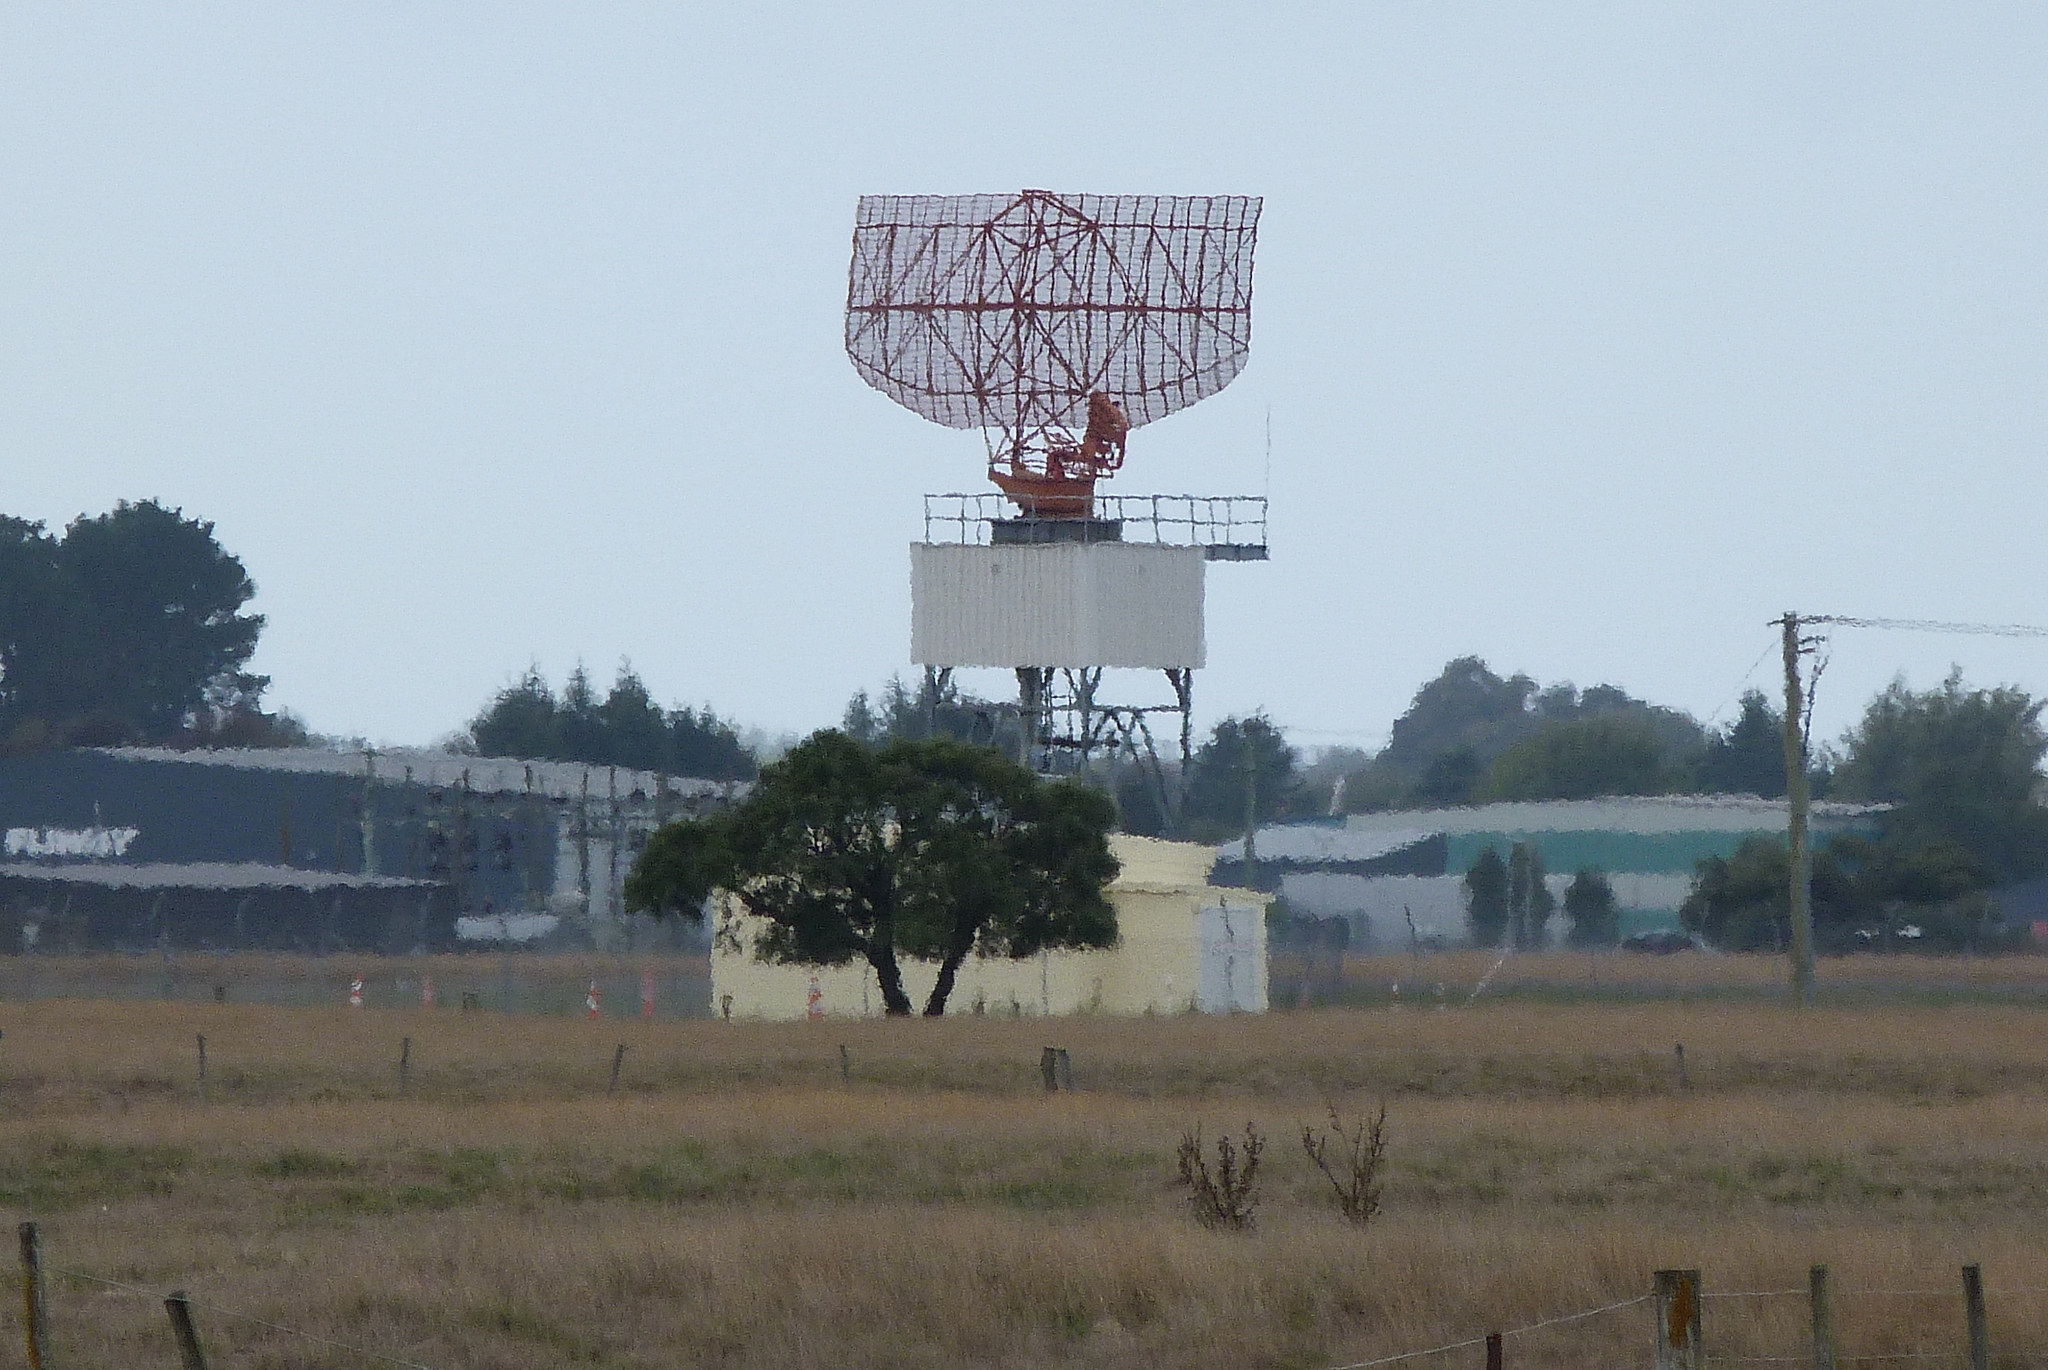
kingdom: Plantae
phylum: Tracheophyta
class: Magnoliopsida
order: Fabales
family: Fabaceae
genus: Sophora
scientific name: Sophora microphylla
